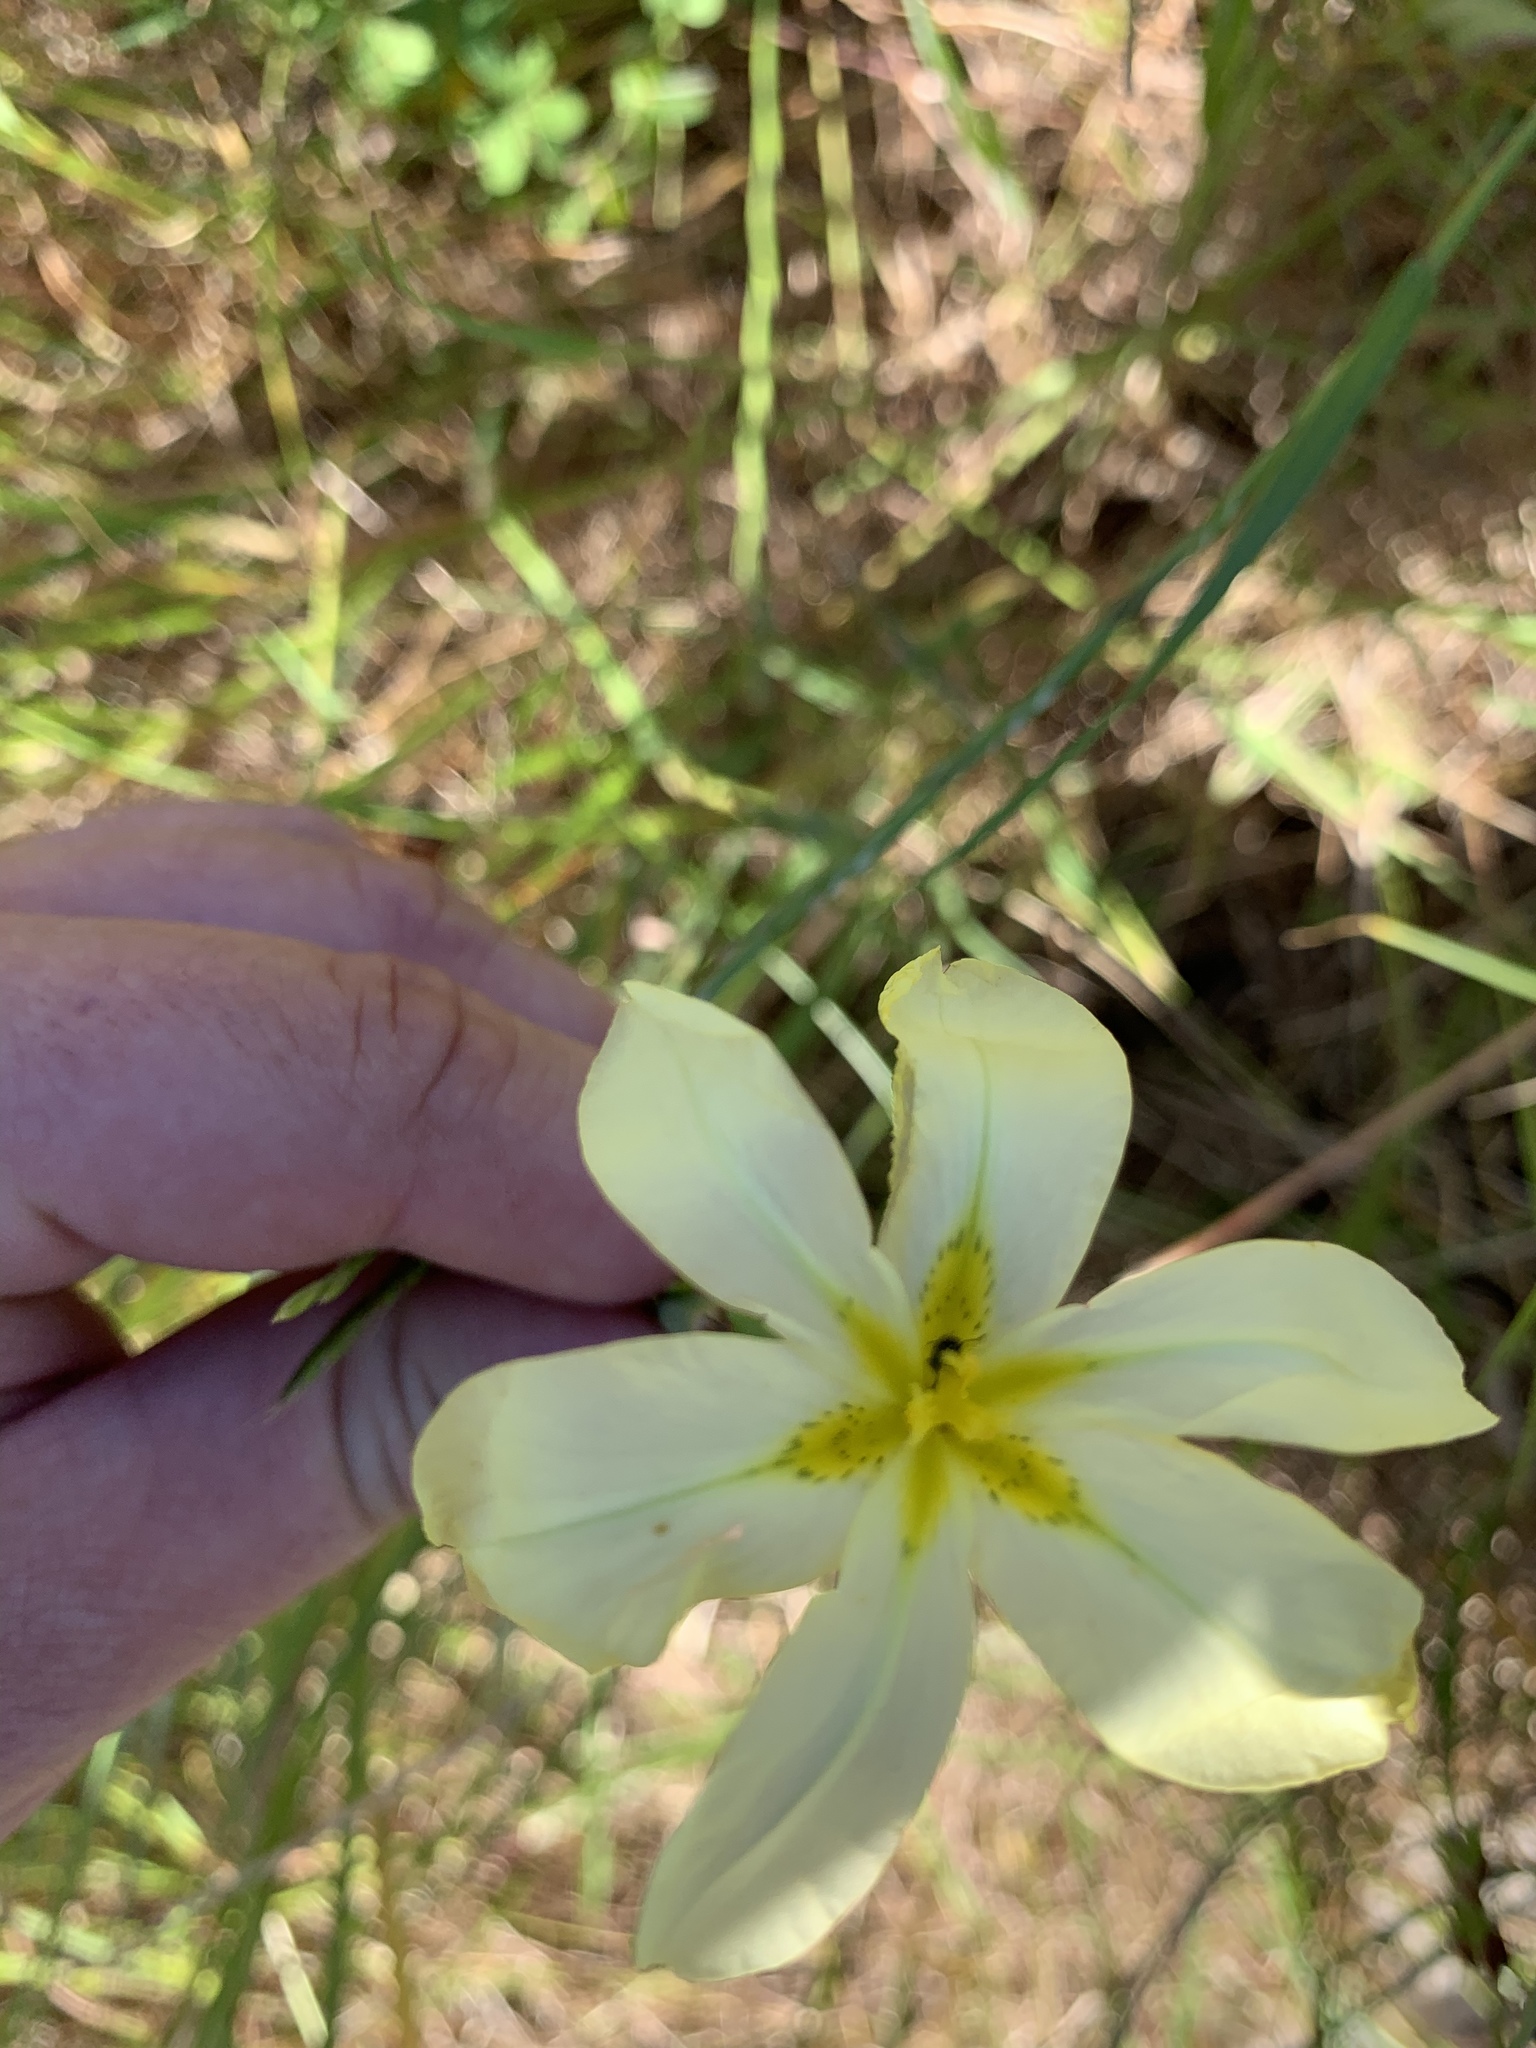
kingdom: Plantae
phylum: Tracheophyta
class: Liliopsida
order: Asparagales
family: Iridaceae
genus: Moraea
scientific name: Moraea miniata
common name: Two-leaf cape-tulip
